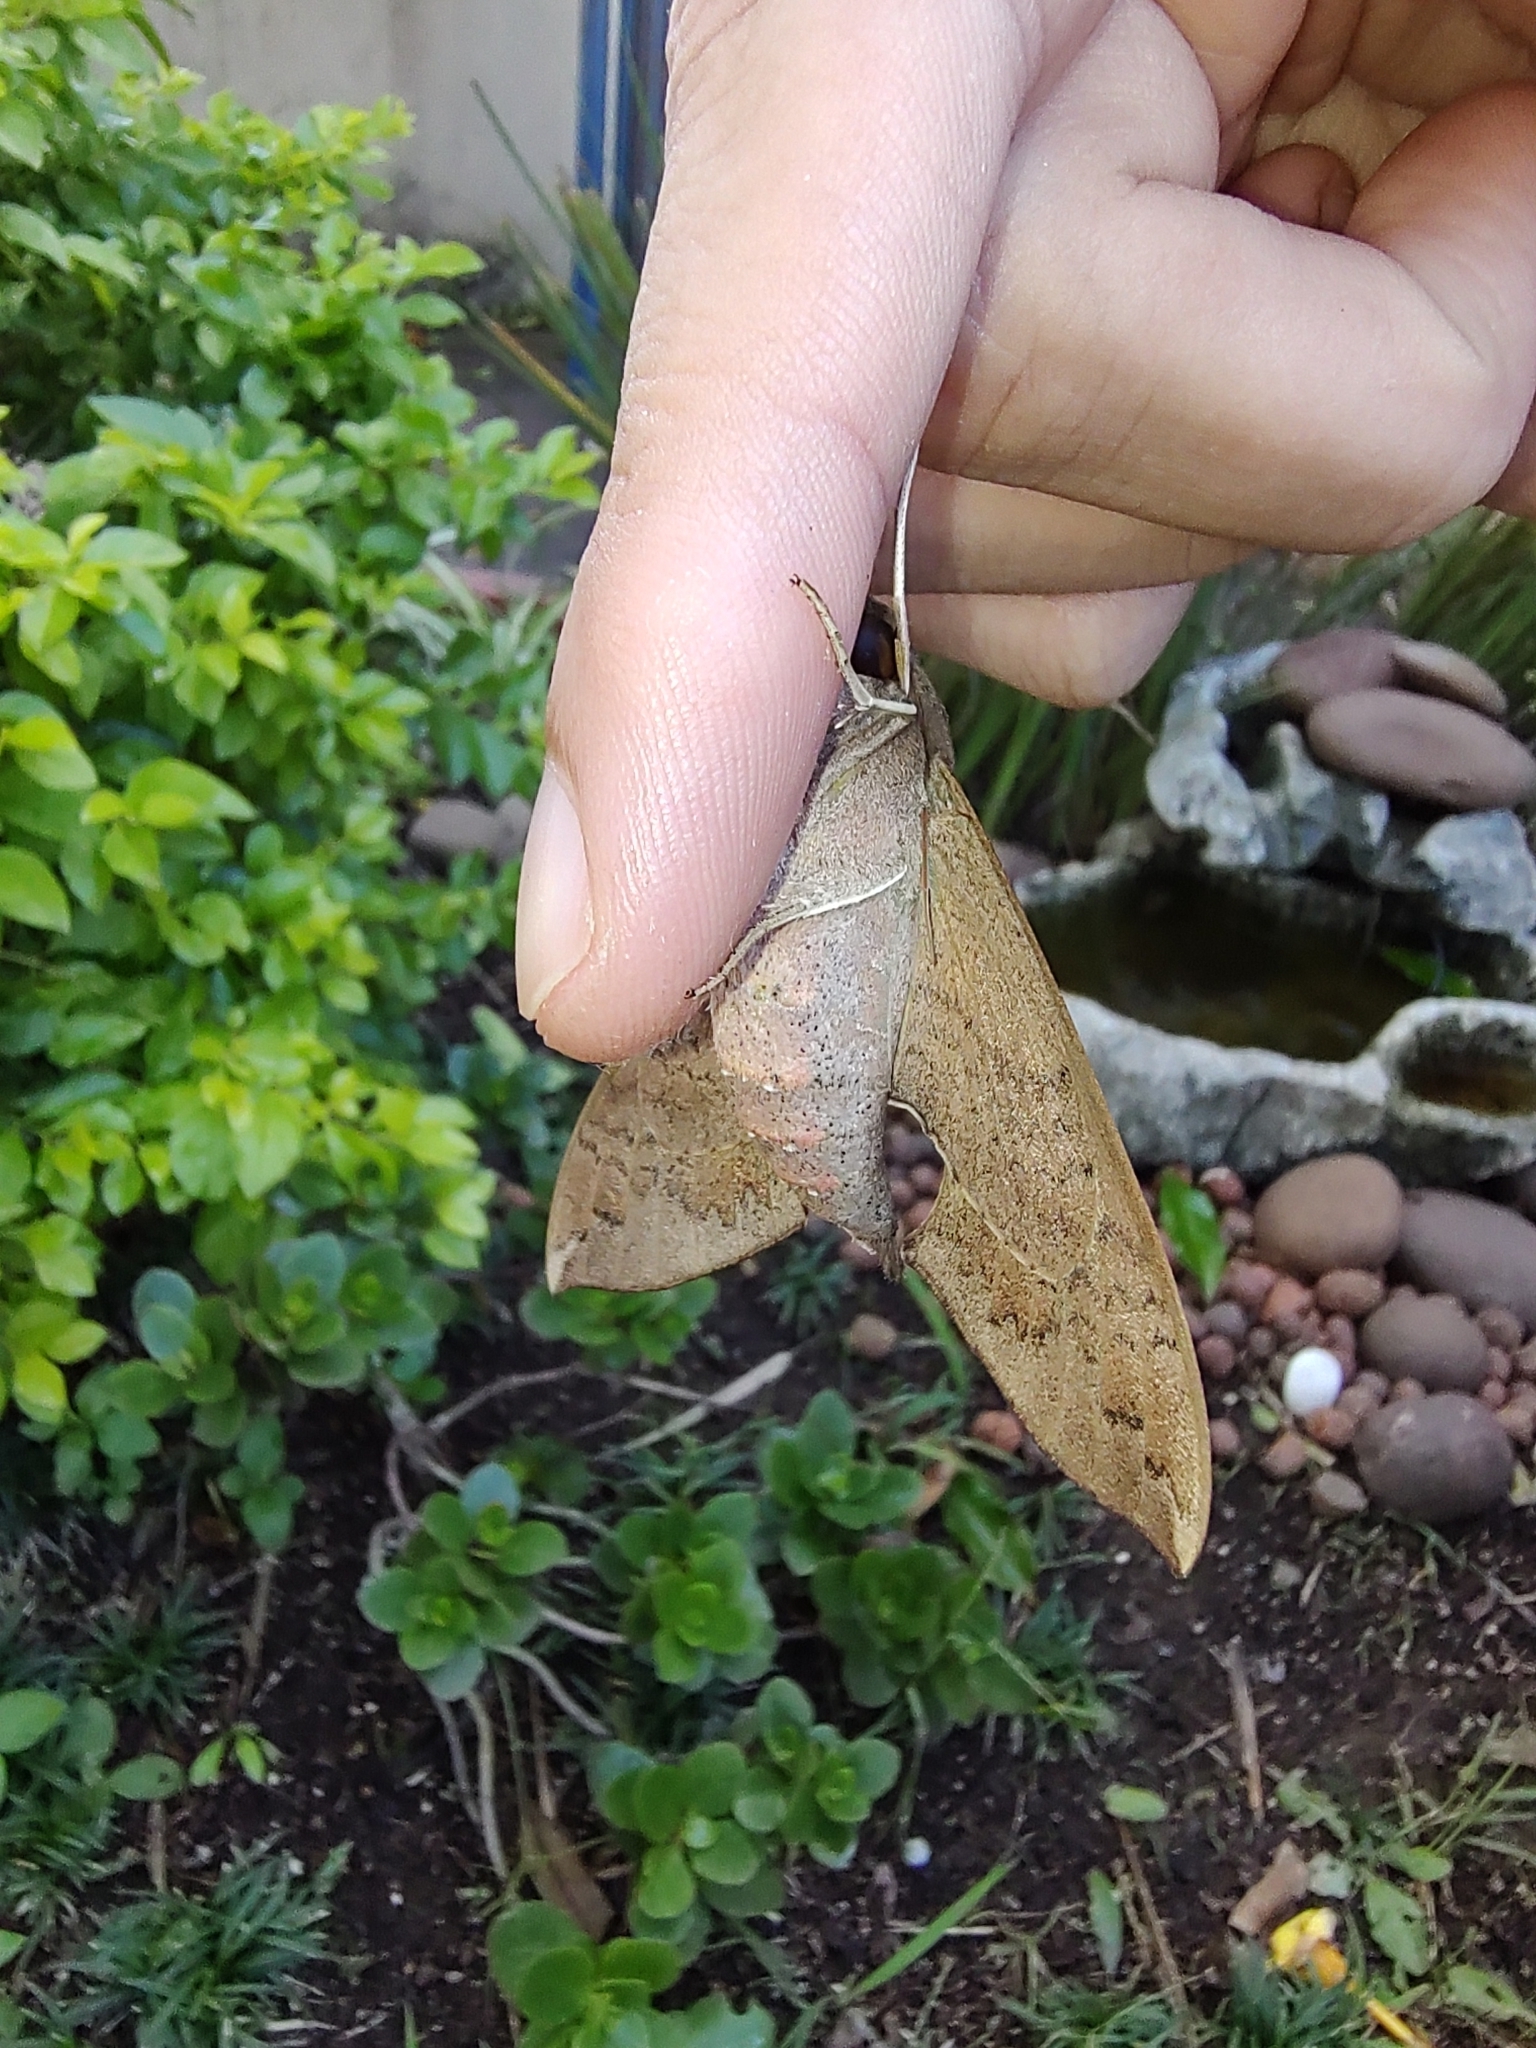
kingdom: Animalia
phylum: Arthropoda
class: Insecta
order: Lepidoptera
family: Sphingidae
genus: Pachylioides
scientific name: Pachylioides resumens
